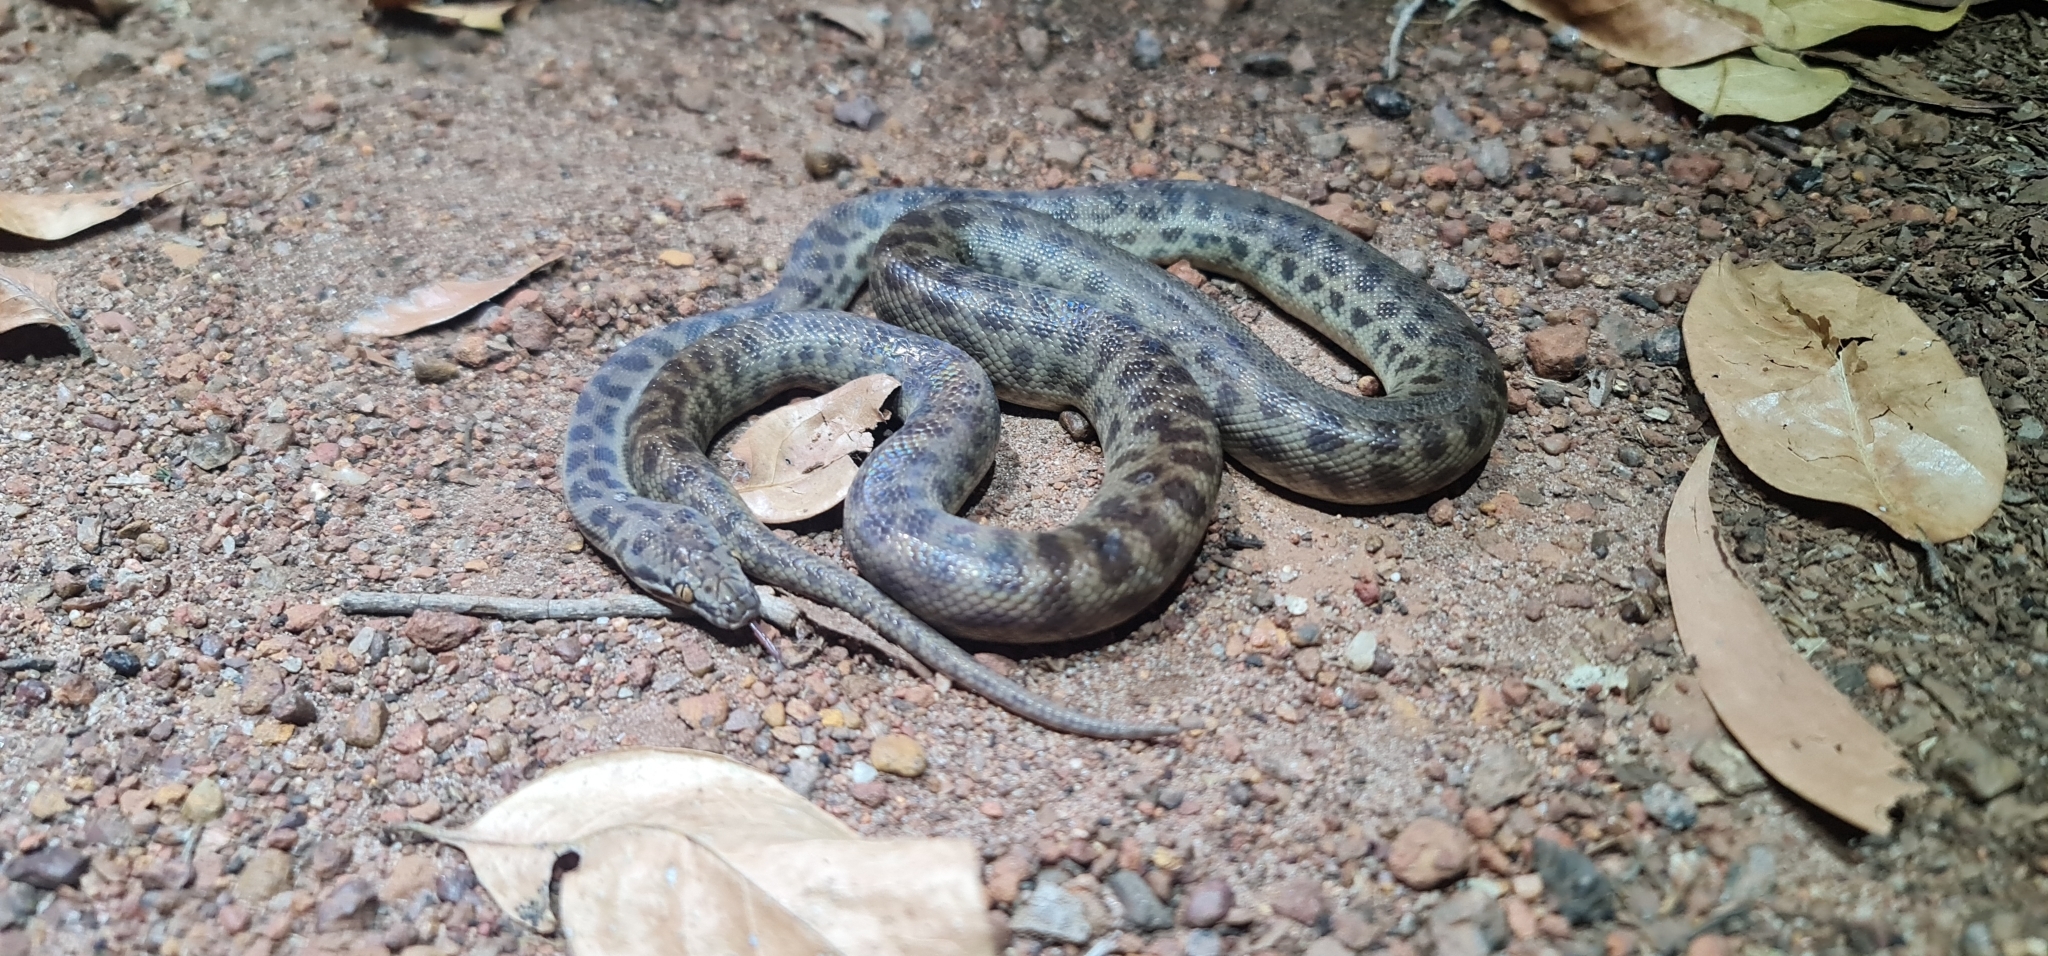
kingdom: Animalia
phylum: Chordata
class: Squamata
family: Pythonidae
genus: Antaresia
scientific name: Antaresia childreni
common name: Children's python
